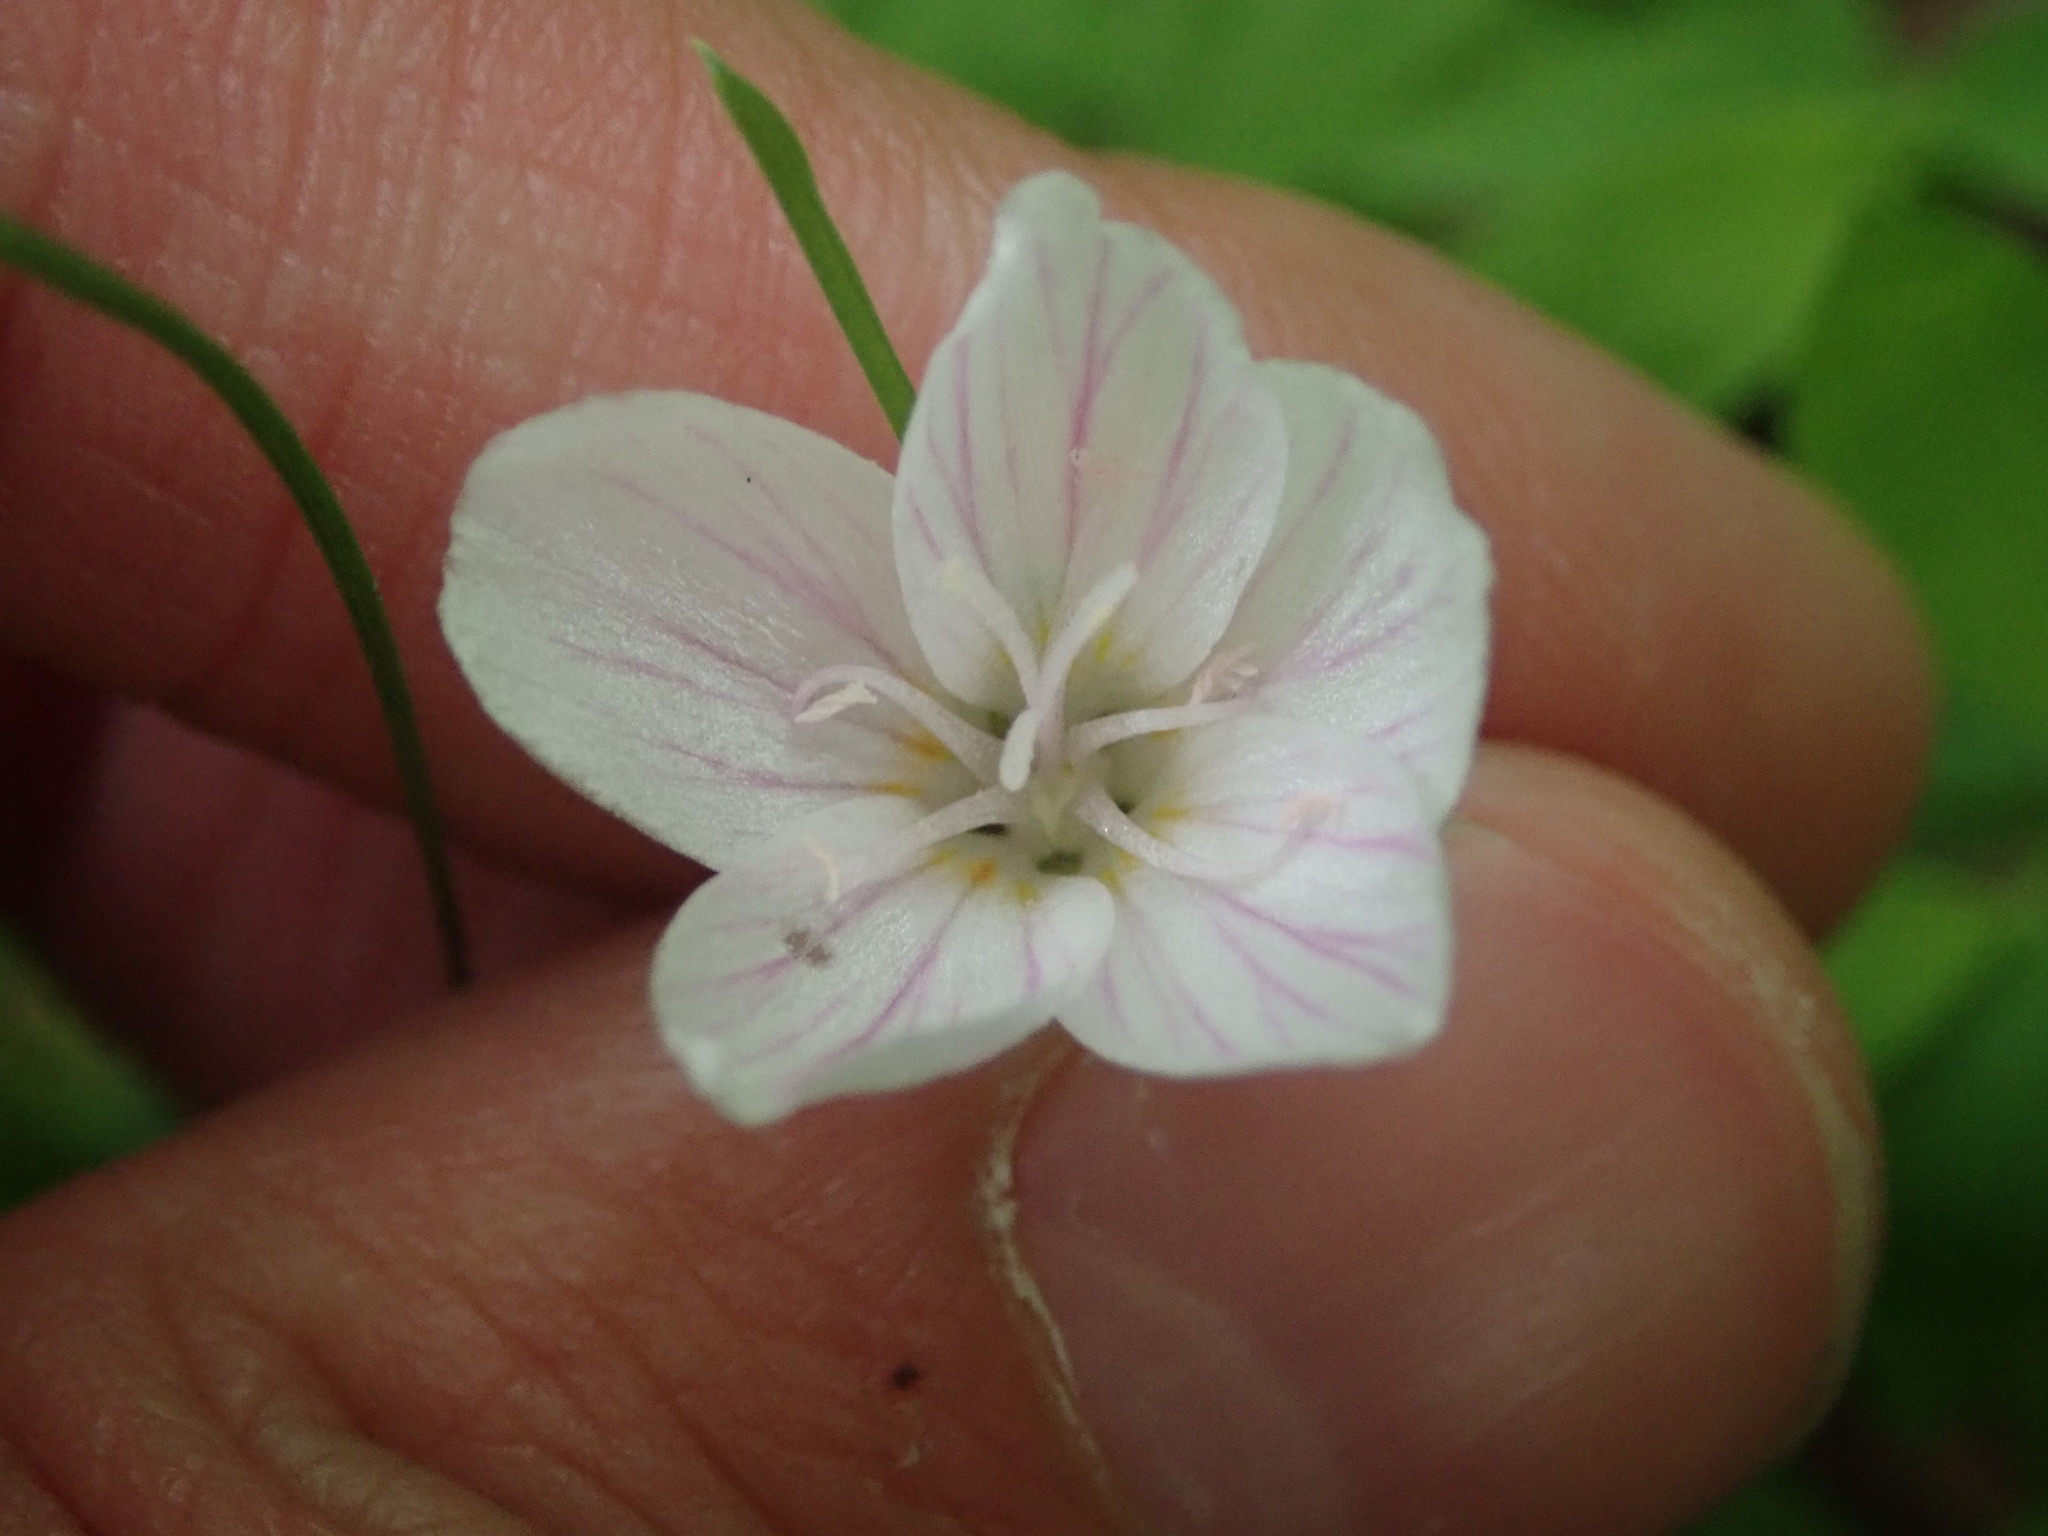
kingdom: Plantae
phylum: Tracheophyta
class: Magnoliopsida
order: Caryophyllales
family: Montiaceae
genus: Claytonia
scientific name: Claytonia virginica
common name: Virginia springbeauty
